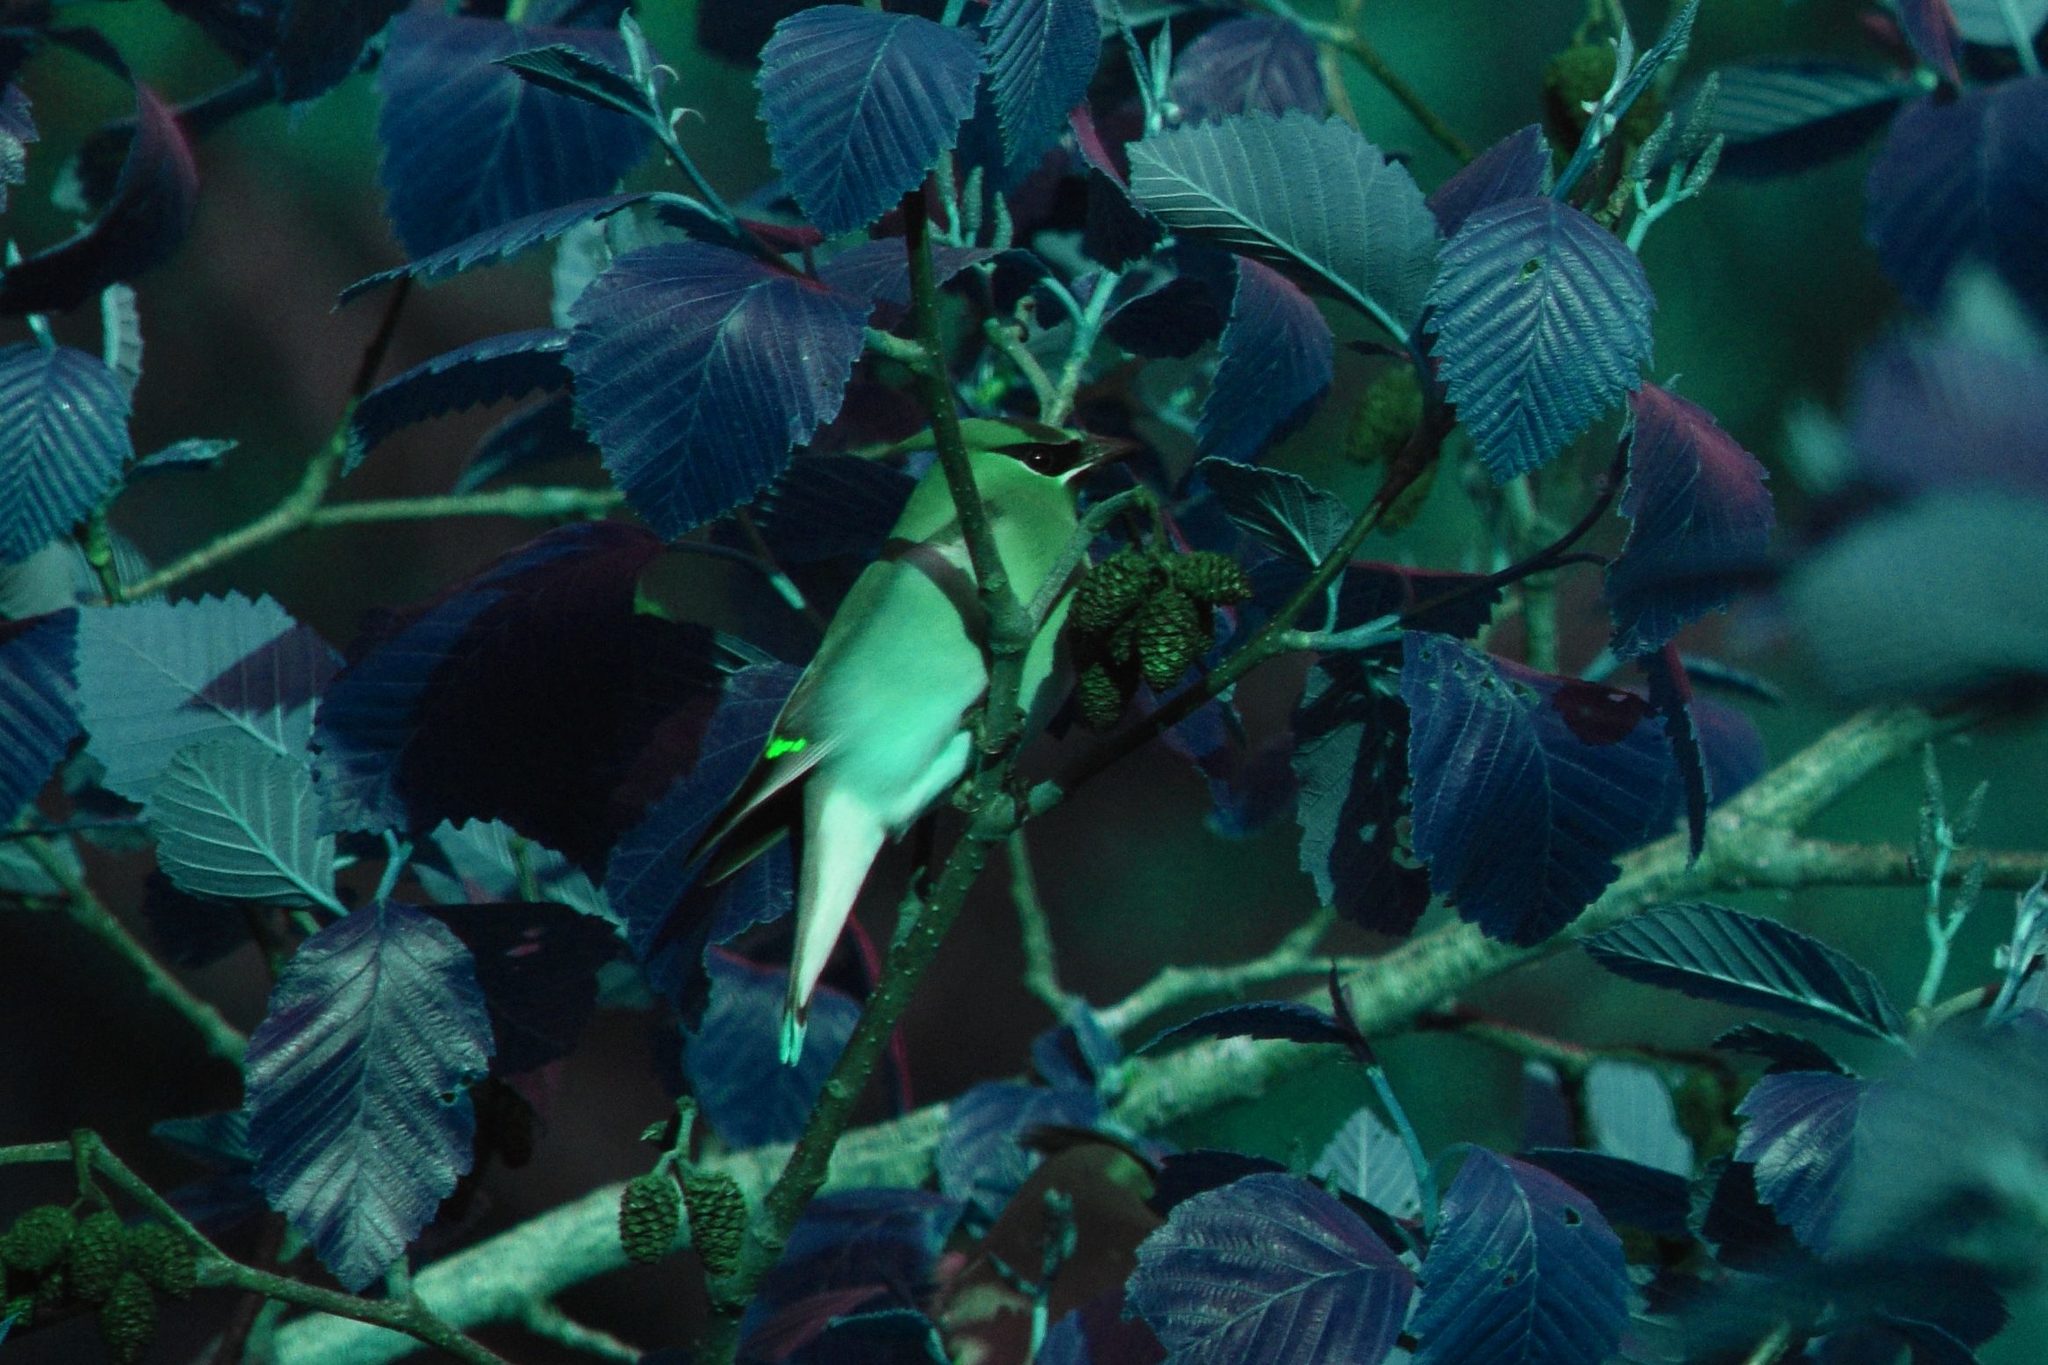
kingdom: Animalia
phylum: Chordata
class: Aves
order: Passeriformes
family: Bombycillidae
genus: Bombycilla
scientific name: Bombycilla cedrorum
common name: Cedar waxwing
